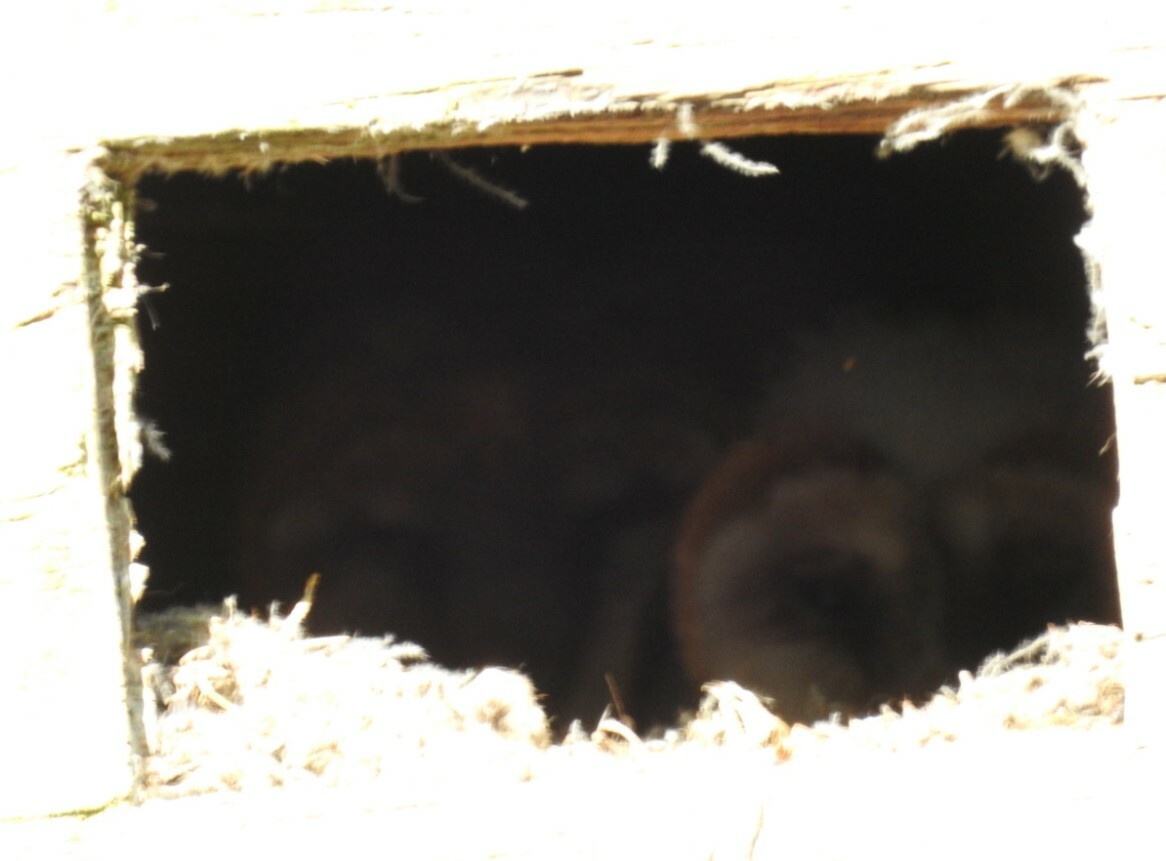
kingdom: Animalia
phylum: Chordata
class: Aves
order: Strigiformes
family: Tytonidae
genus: Tyto
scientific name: Tyto alba
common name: Barn owl
